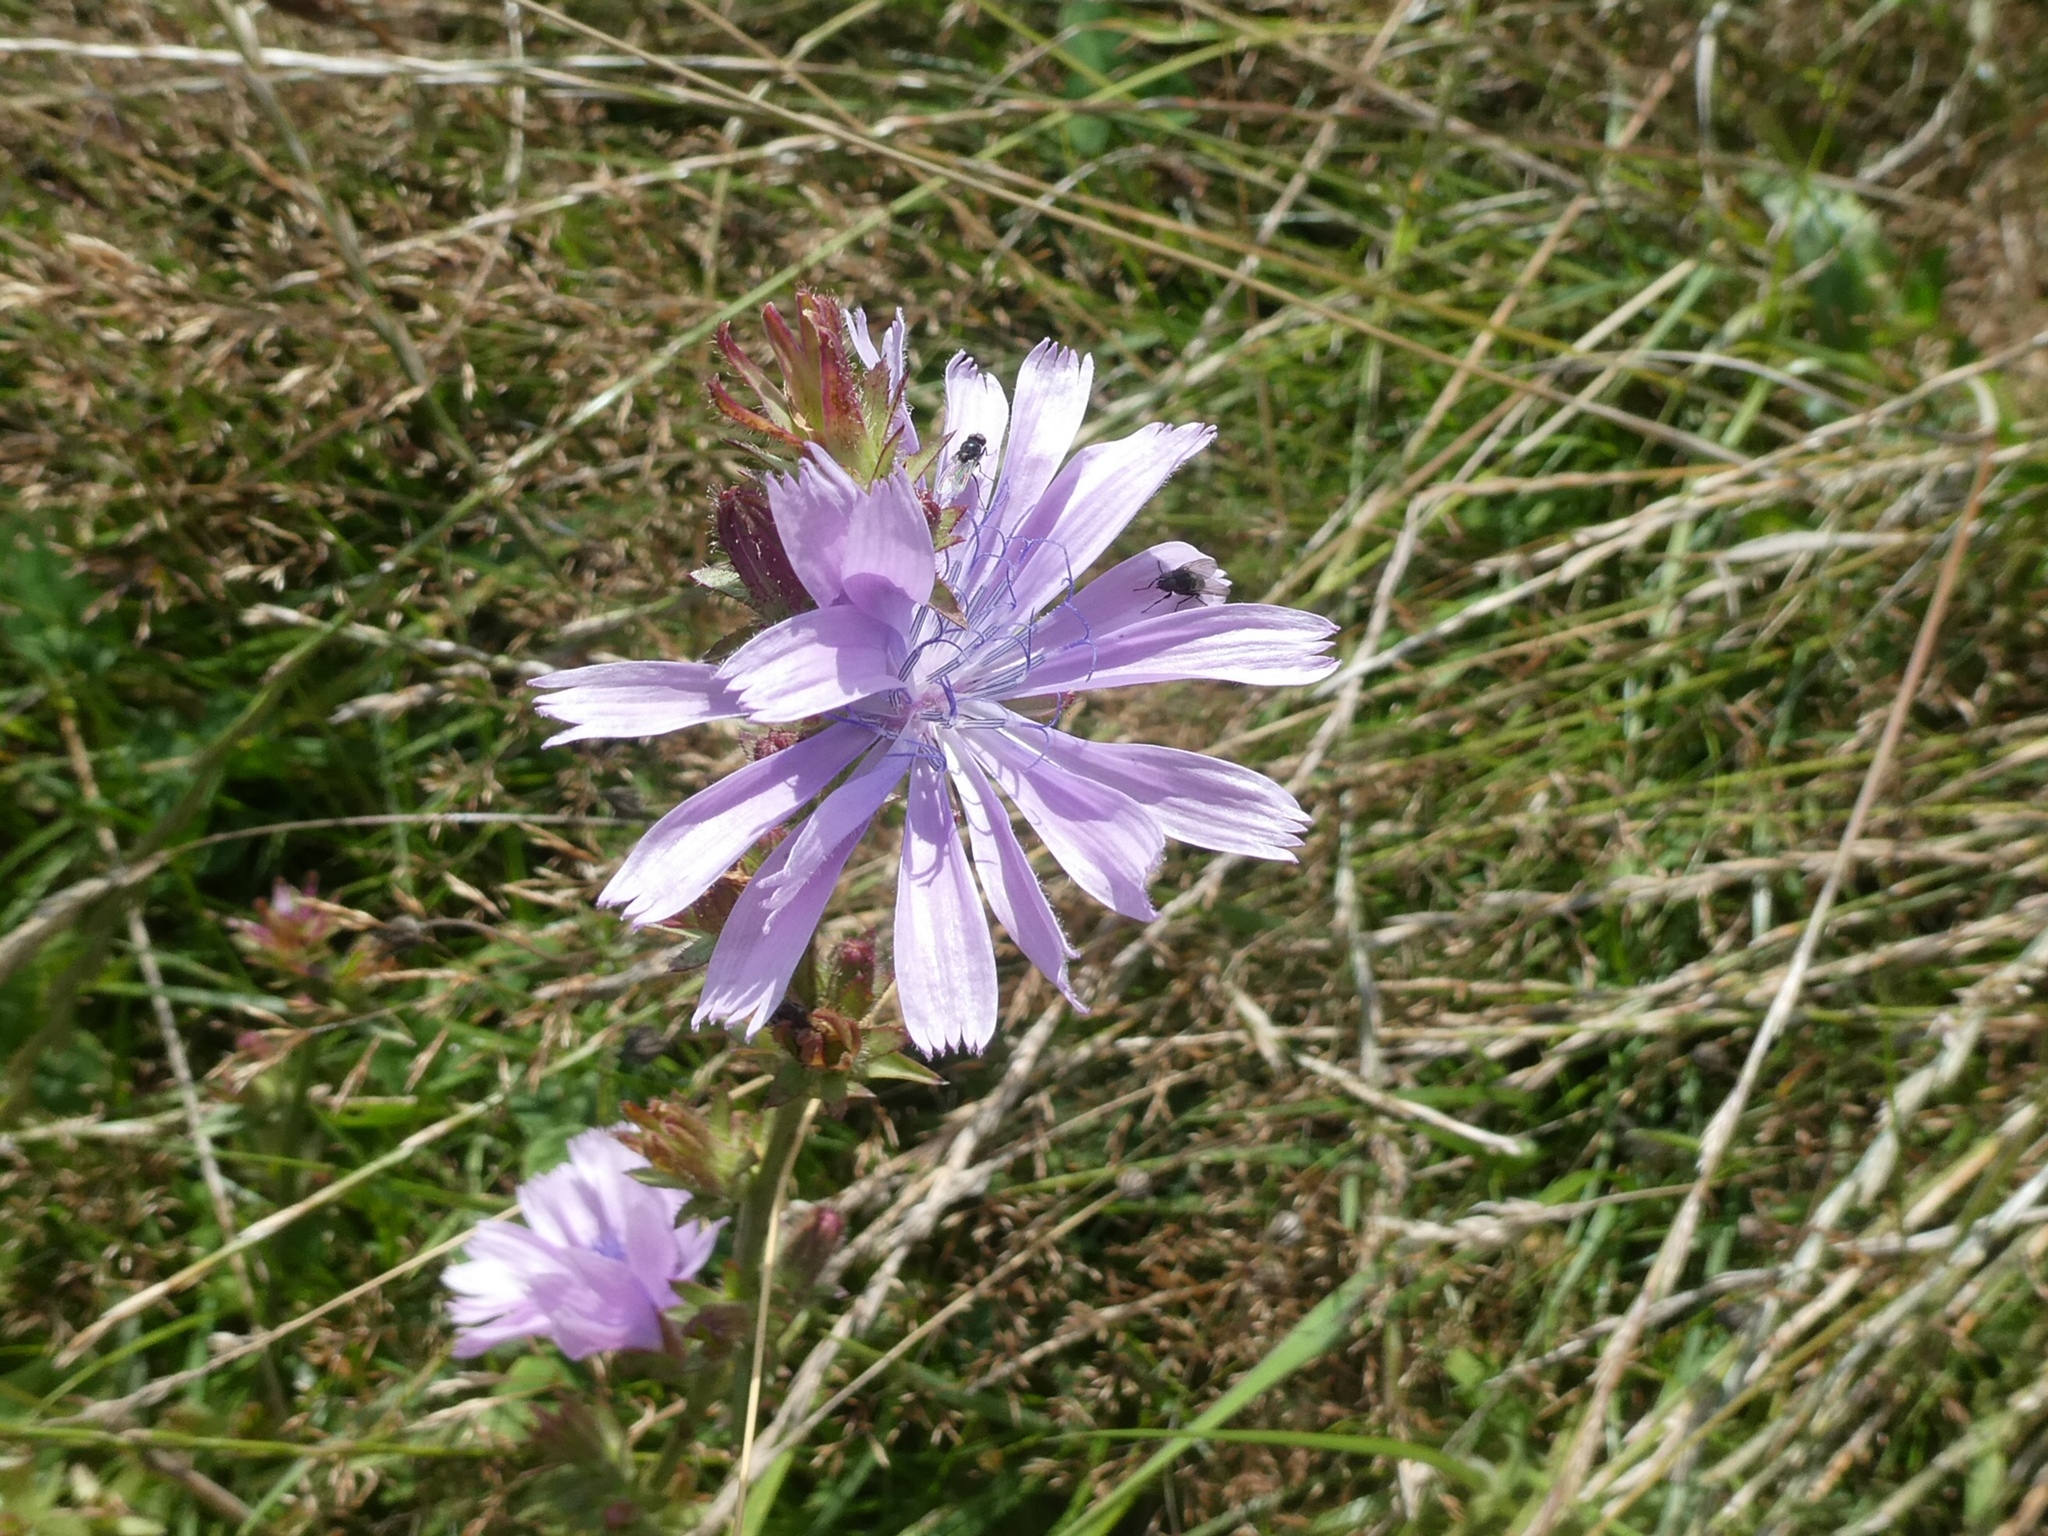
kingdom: Plantae
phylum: Tracheophyta
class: Magnoliopsida
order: Asterales
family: Asteraceae
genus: Cichorium
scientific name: Cichorium intybus
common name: Chicory
